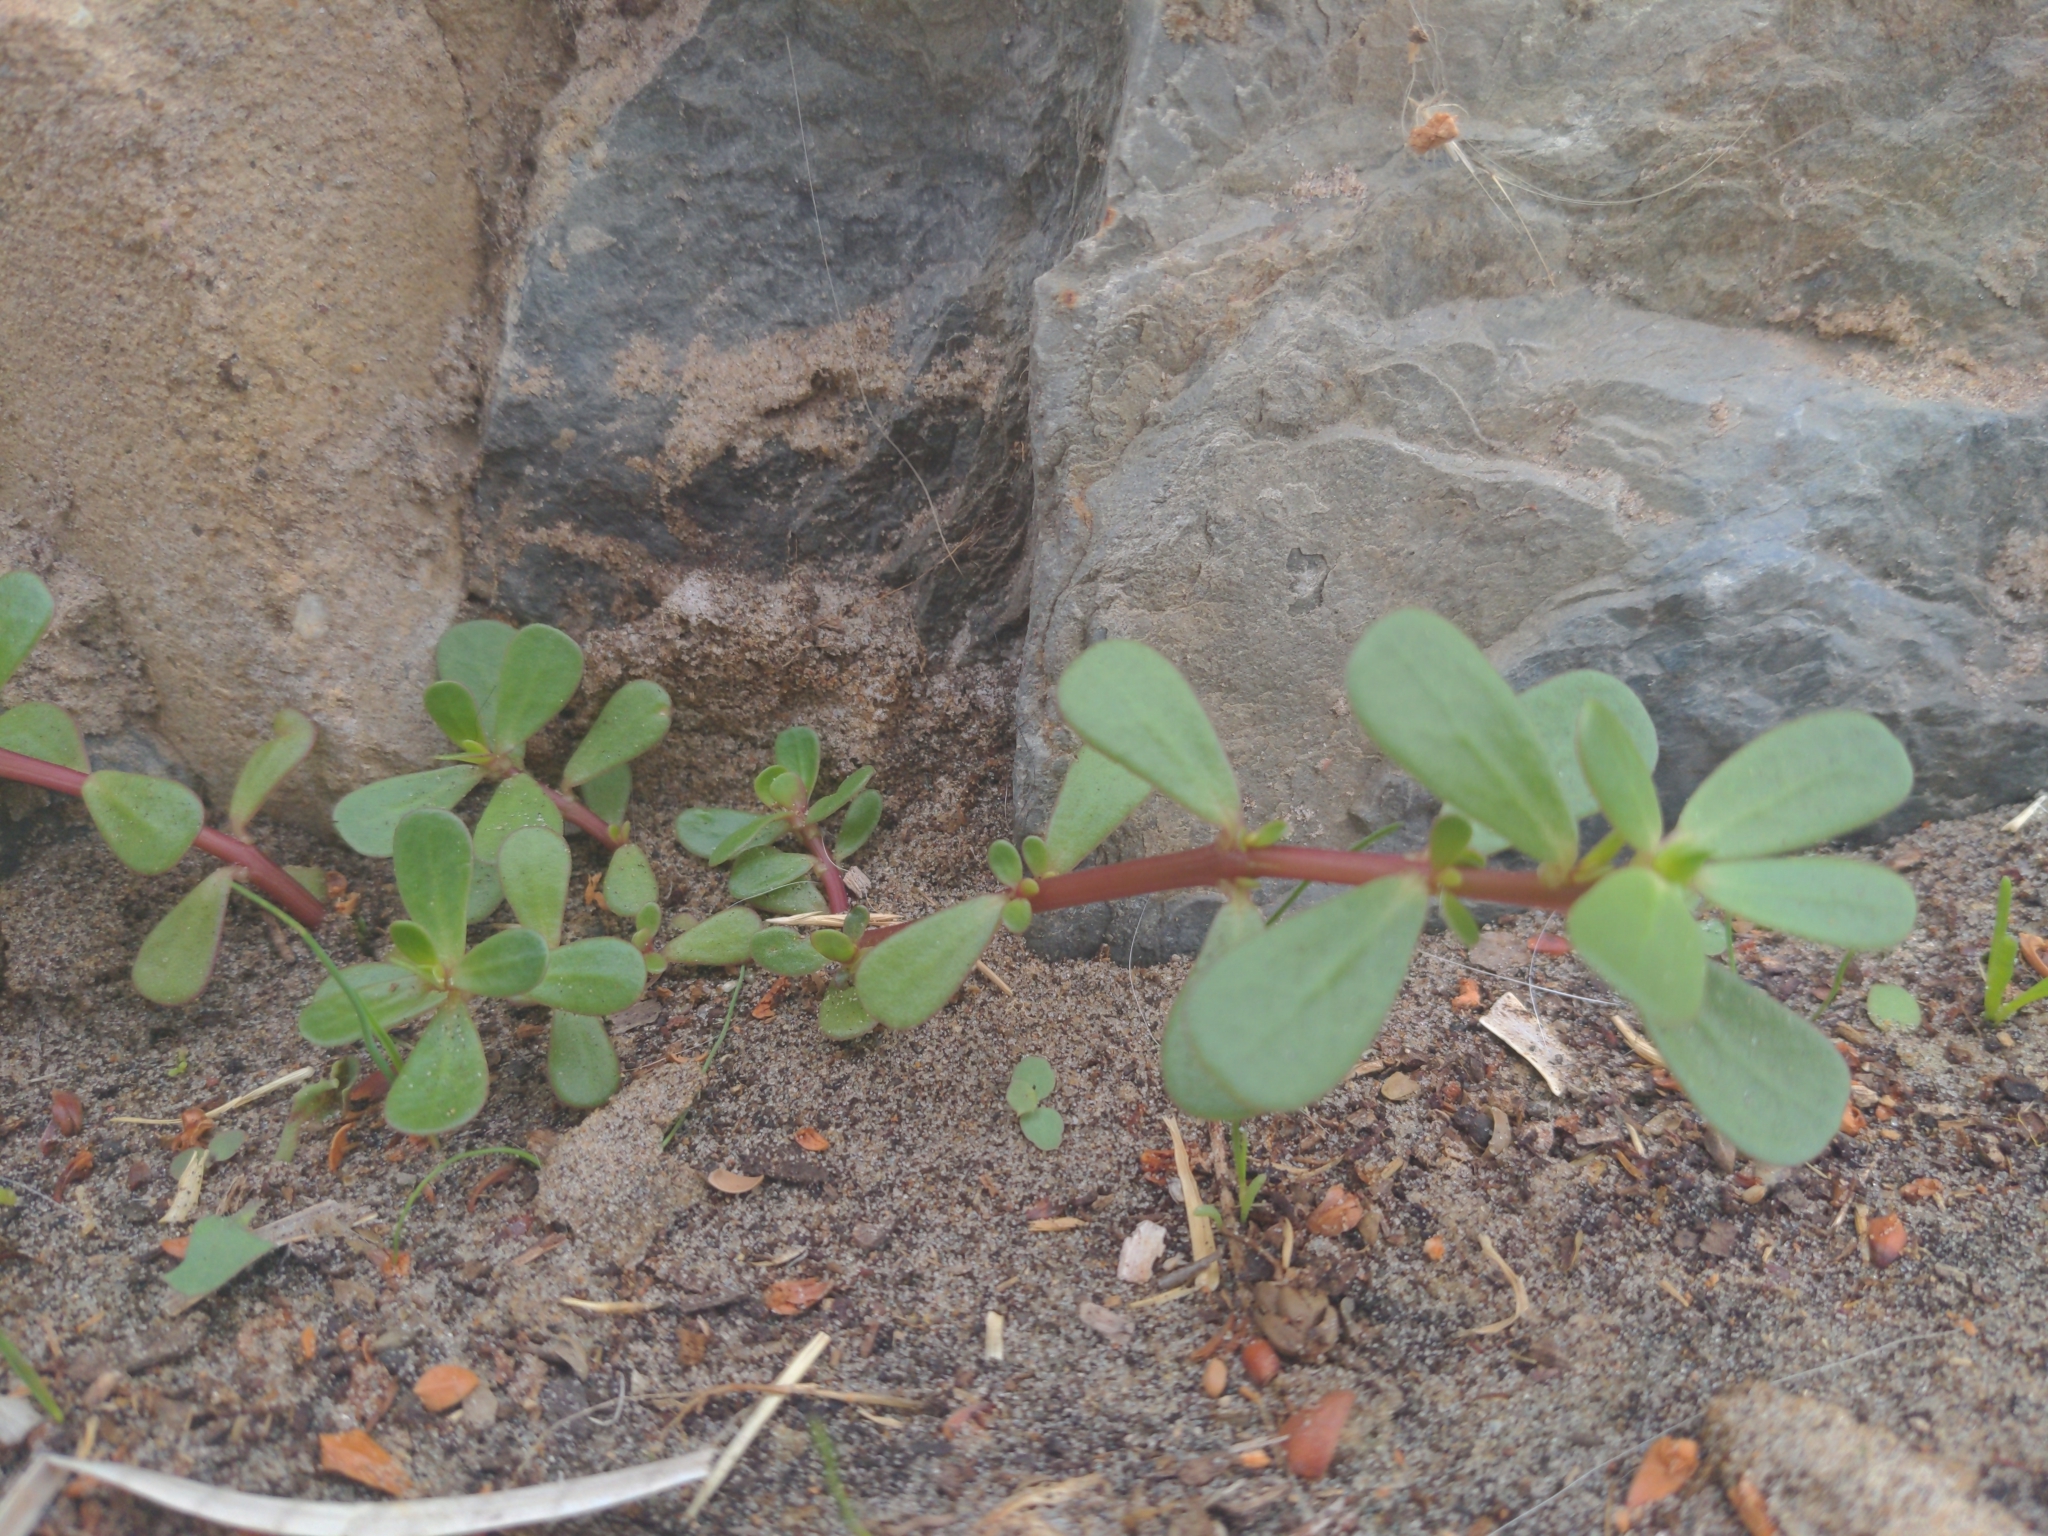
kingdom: Plantae
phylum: Tracheophyta
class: Magnoliopsida
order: Caryophyllales
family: Portulacaceae
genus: Portulaca
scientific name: Portulaca oleracea
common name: Common purslane
